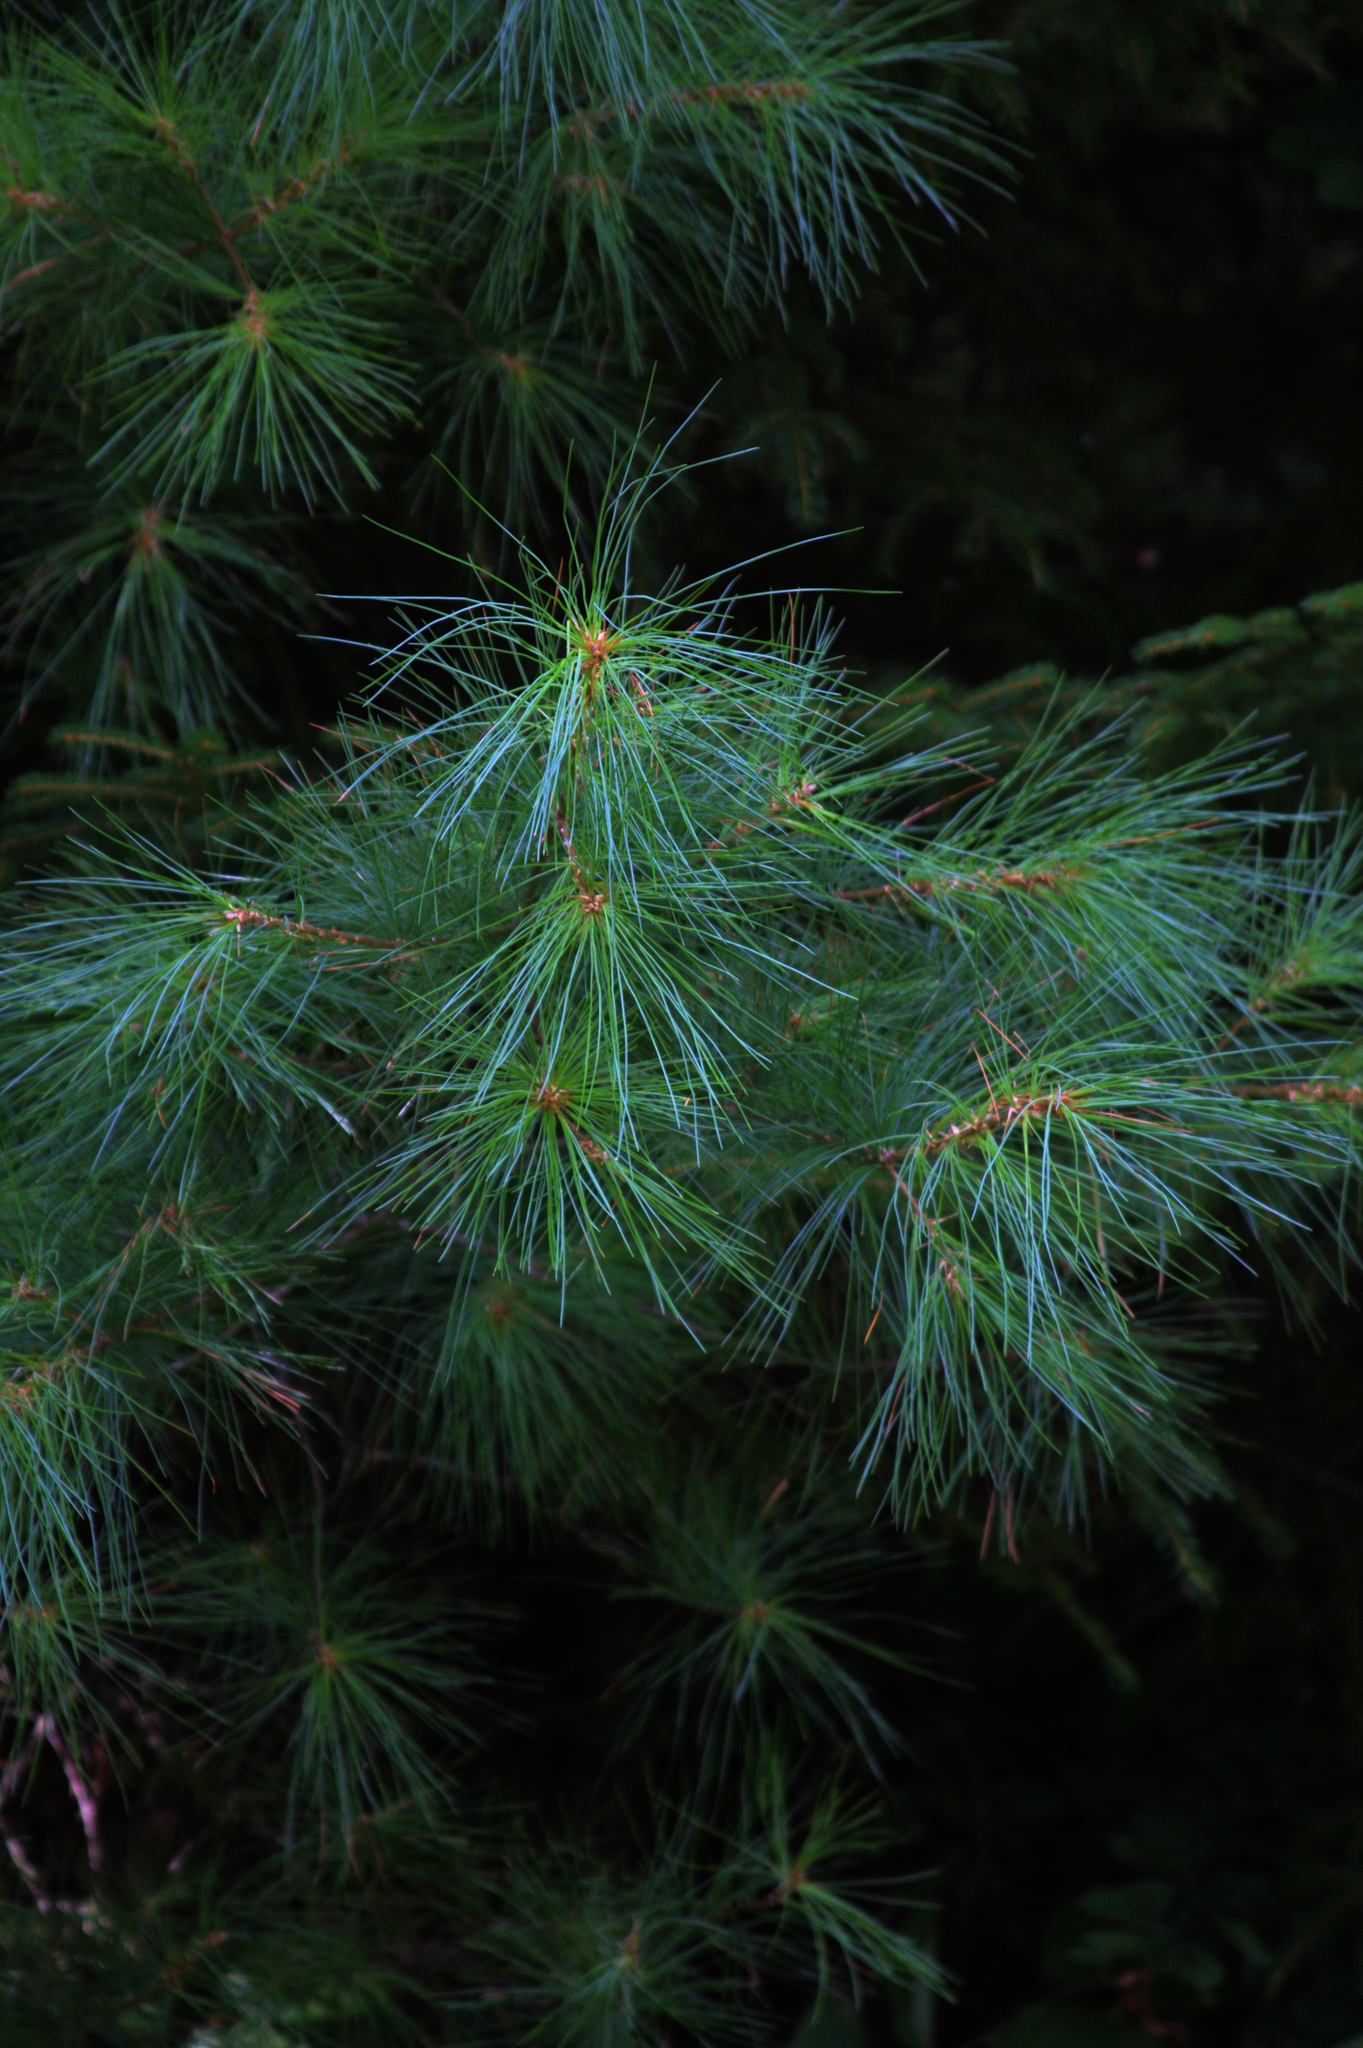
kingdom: Plantae
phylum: Tracheophyta
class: Pinopsida
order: Pinales
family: Pinaceae
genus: Pinus
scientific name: Pinus strobus
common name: Weymouth pine
